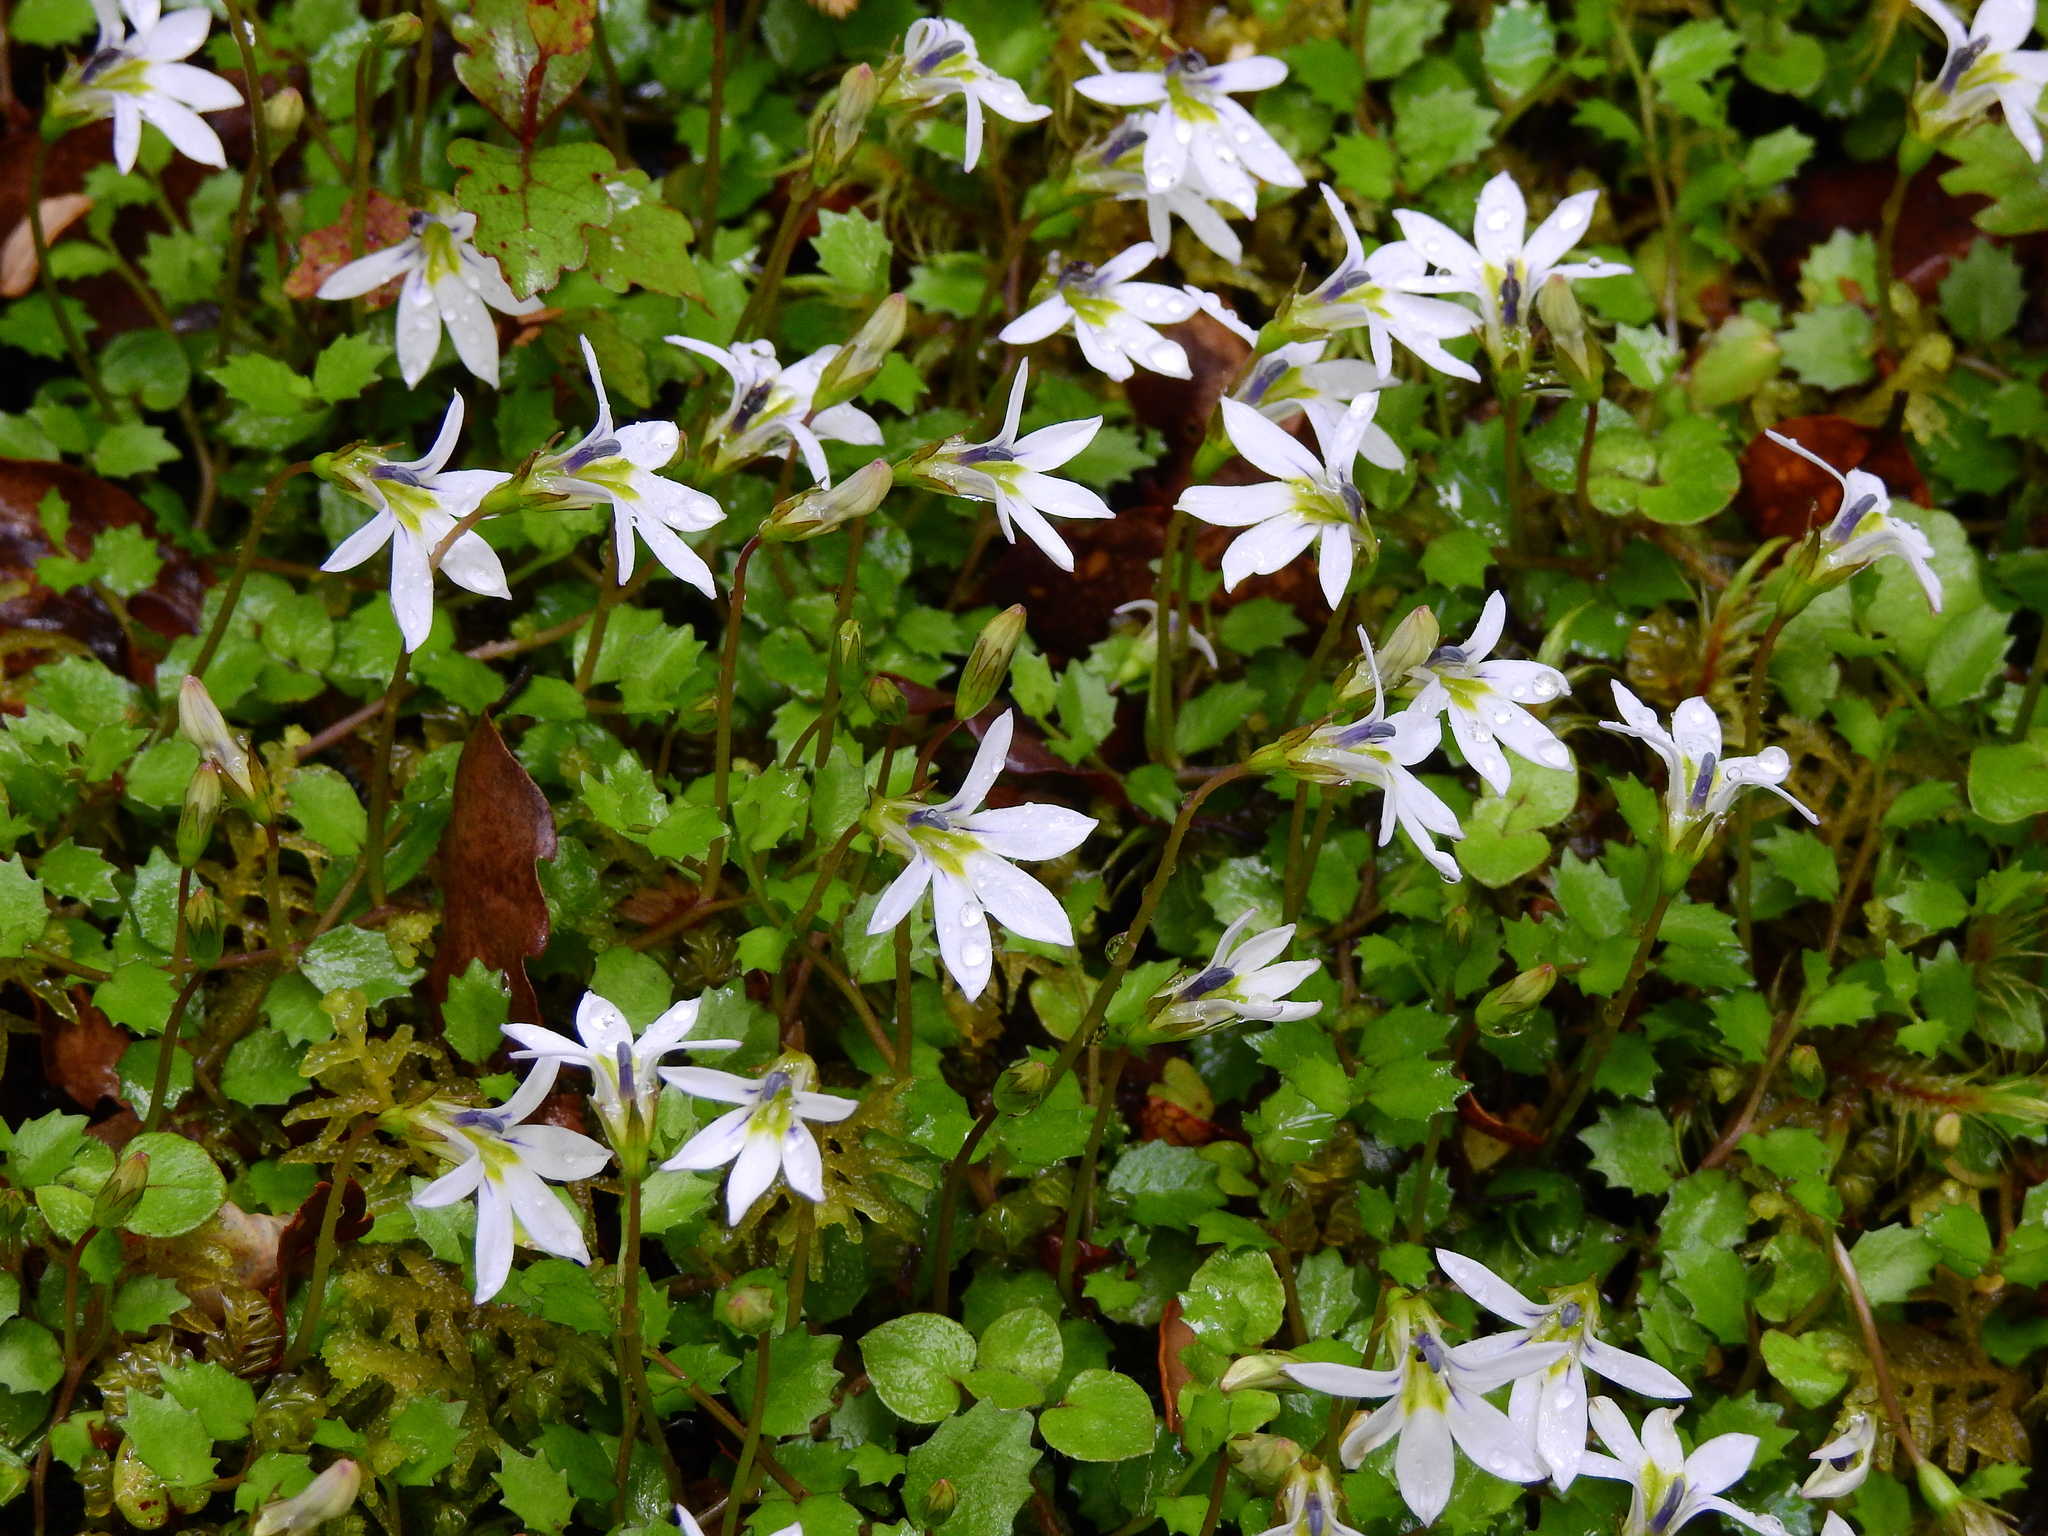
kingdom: Plantae
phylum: Tracheophyta
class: Magnoliopsida
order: Asterales
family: Campanulaceae
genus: Lobelia
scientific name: Lobelia angulata
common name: Lawn lobelia
